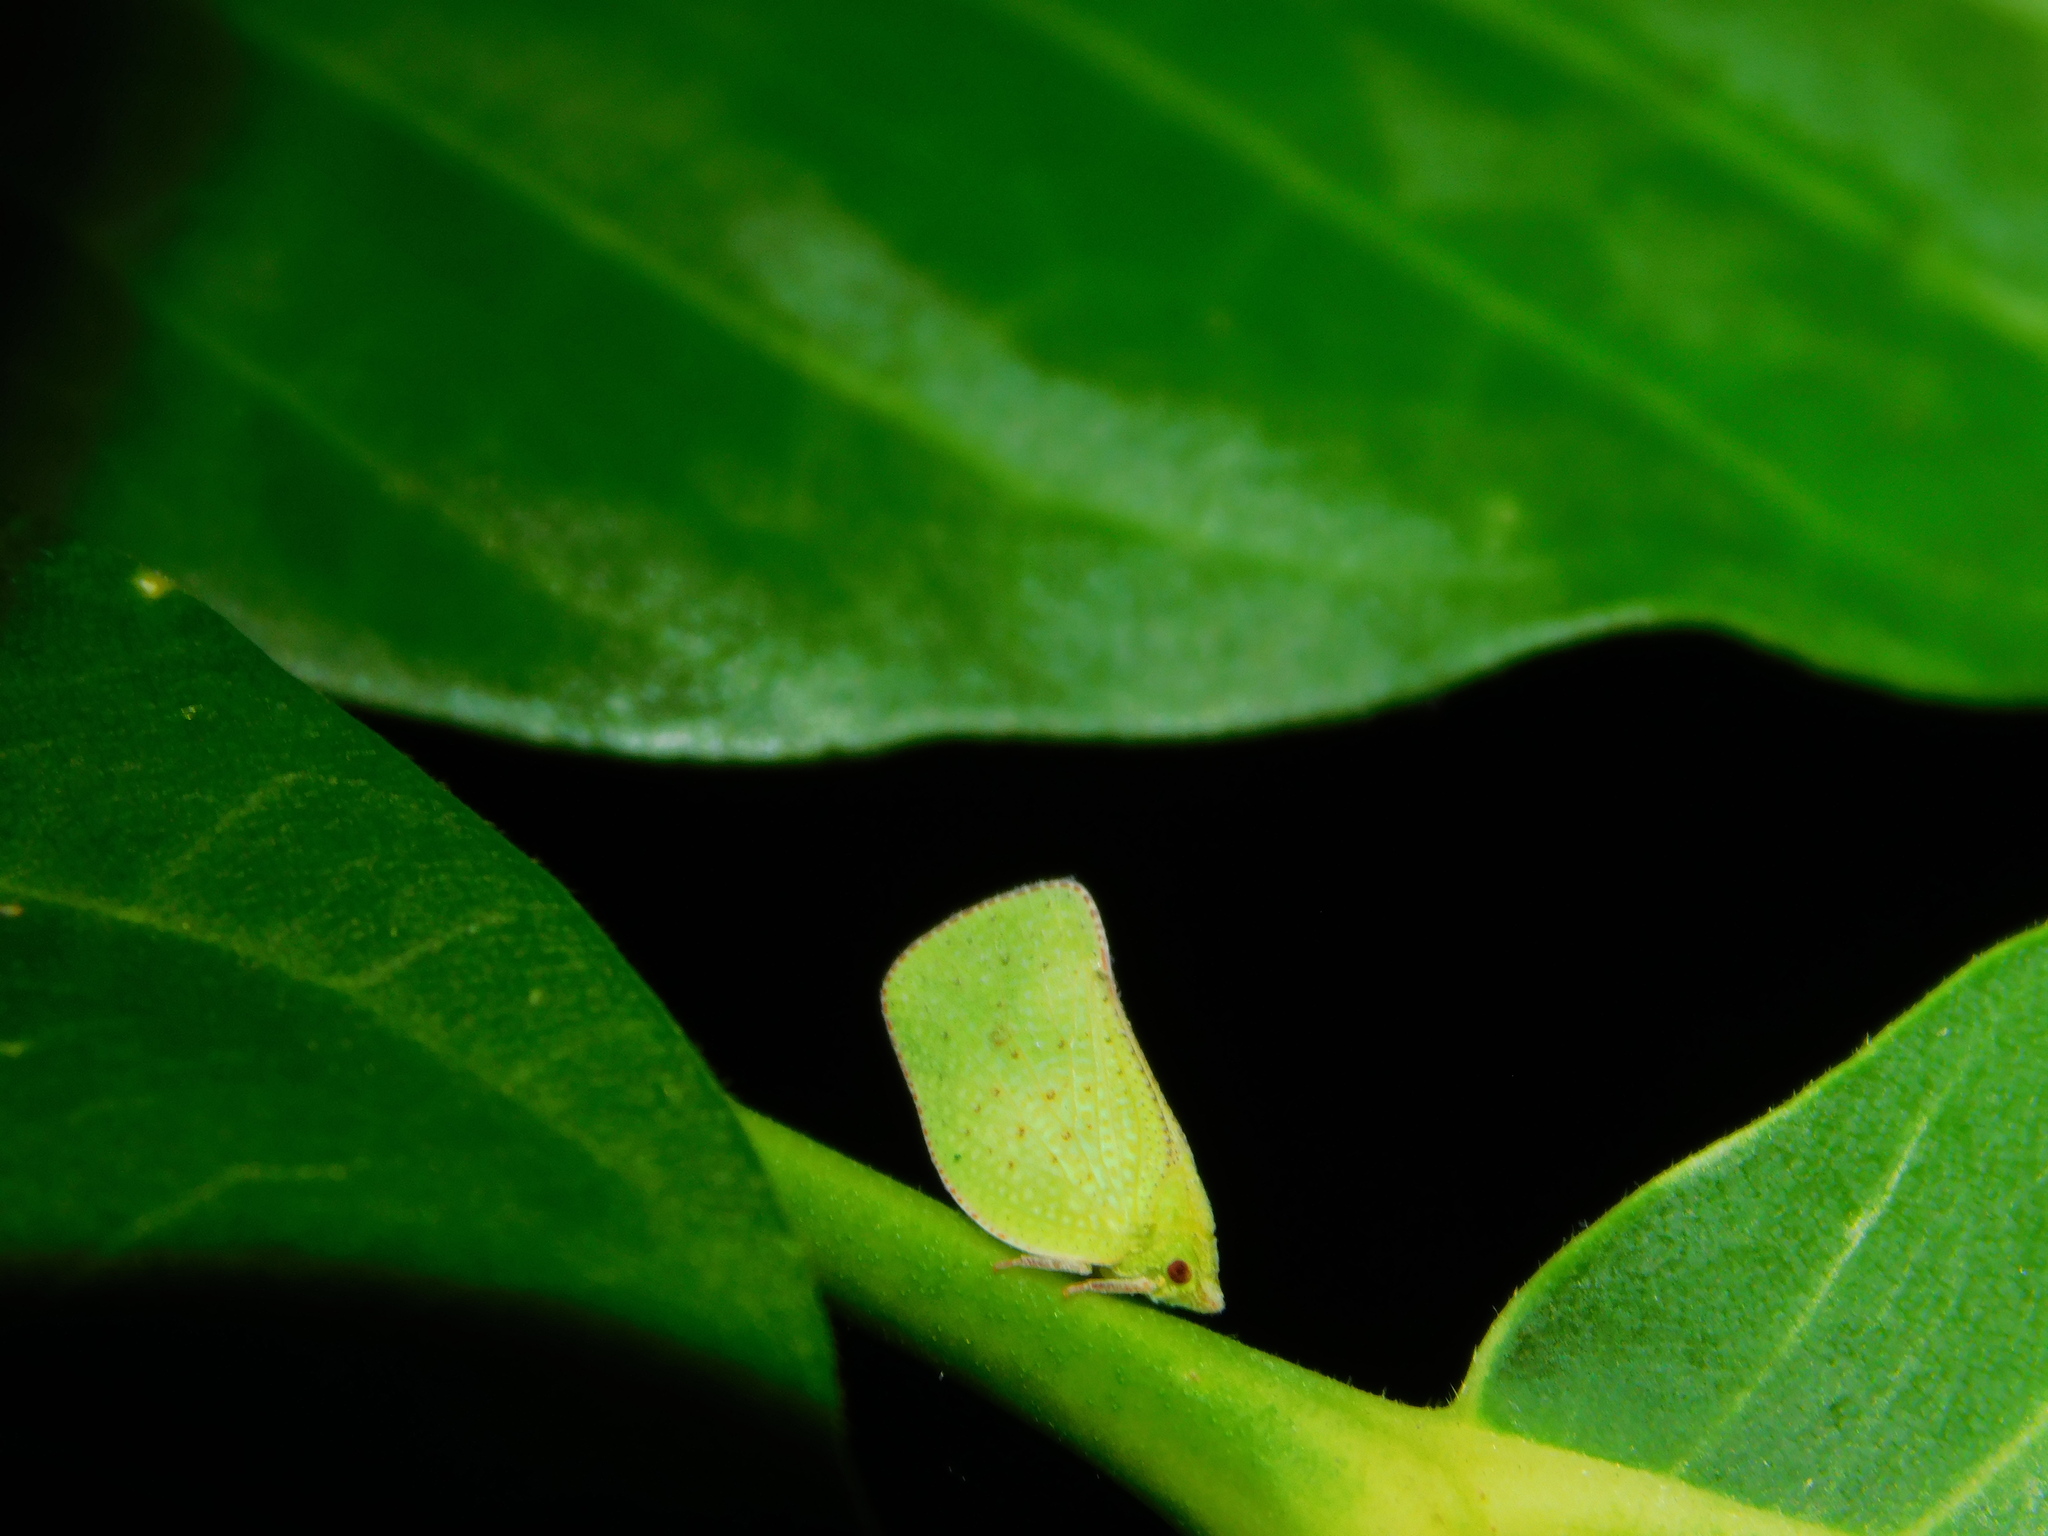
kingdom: Animalia
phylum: Arthropoda
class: Insecta
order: Hemiptera
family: Flatidae
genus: Siphanta
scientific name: Siphanta patruelis
